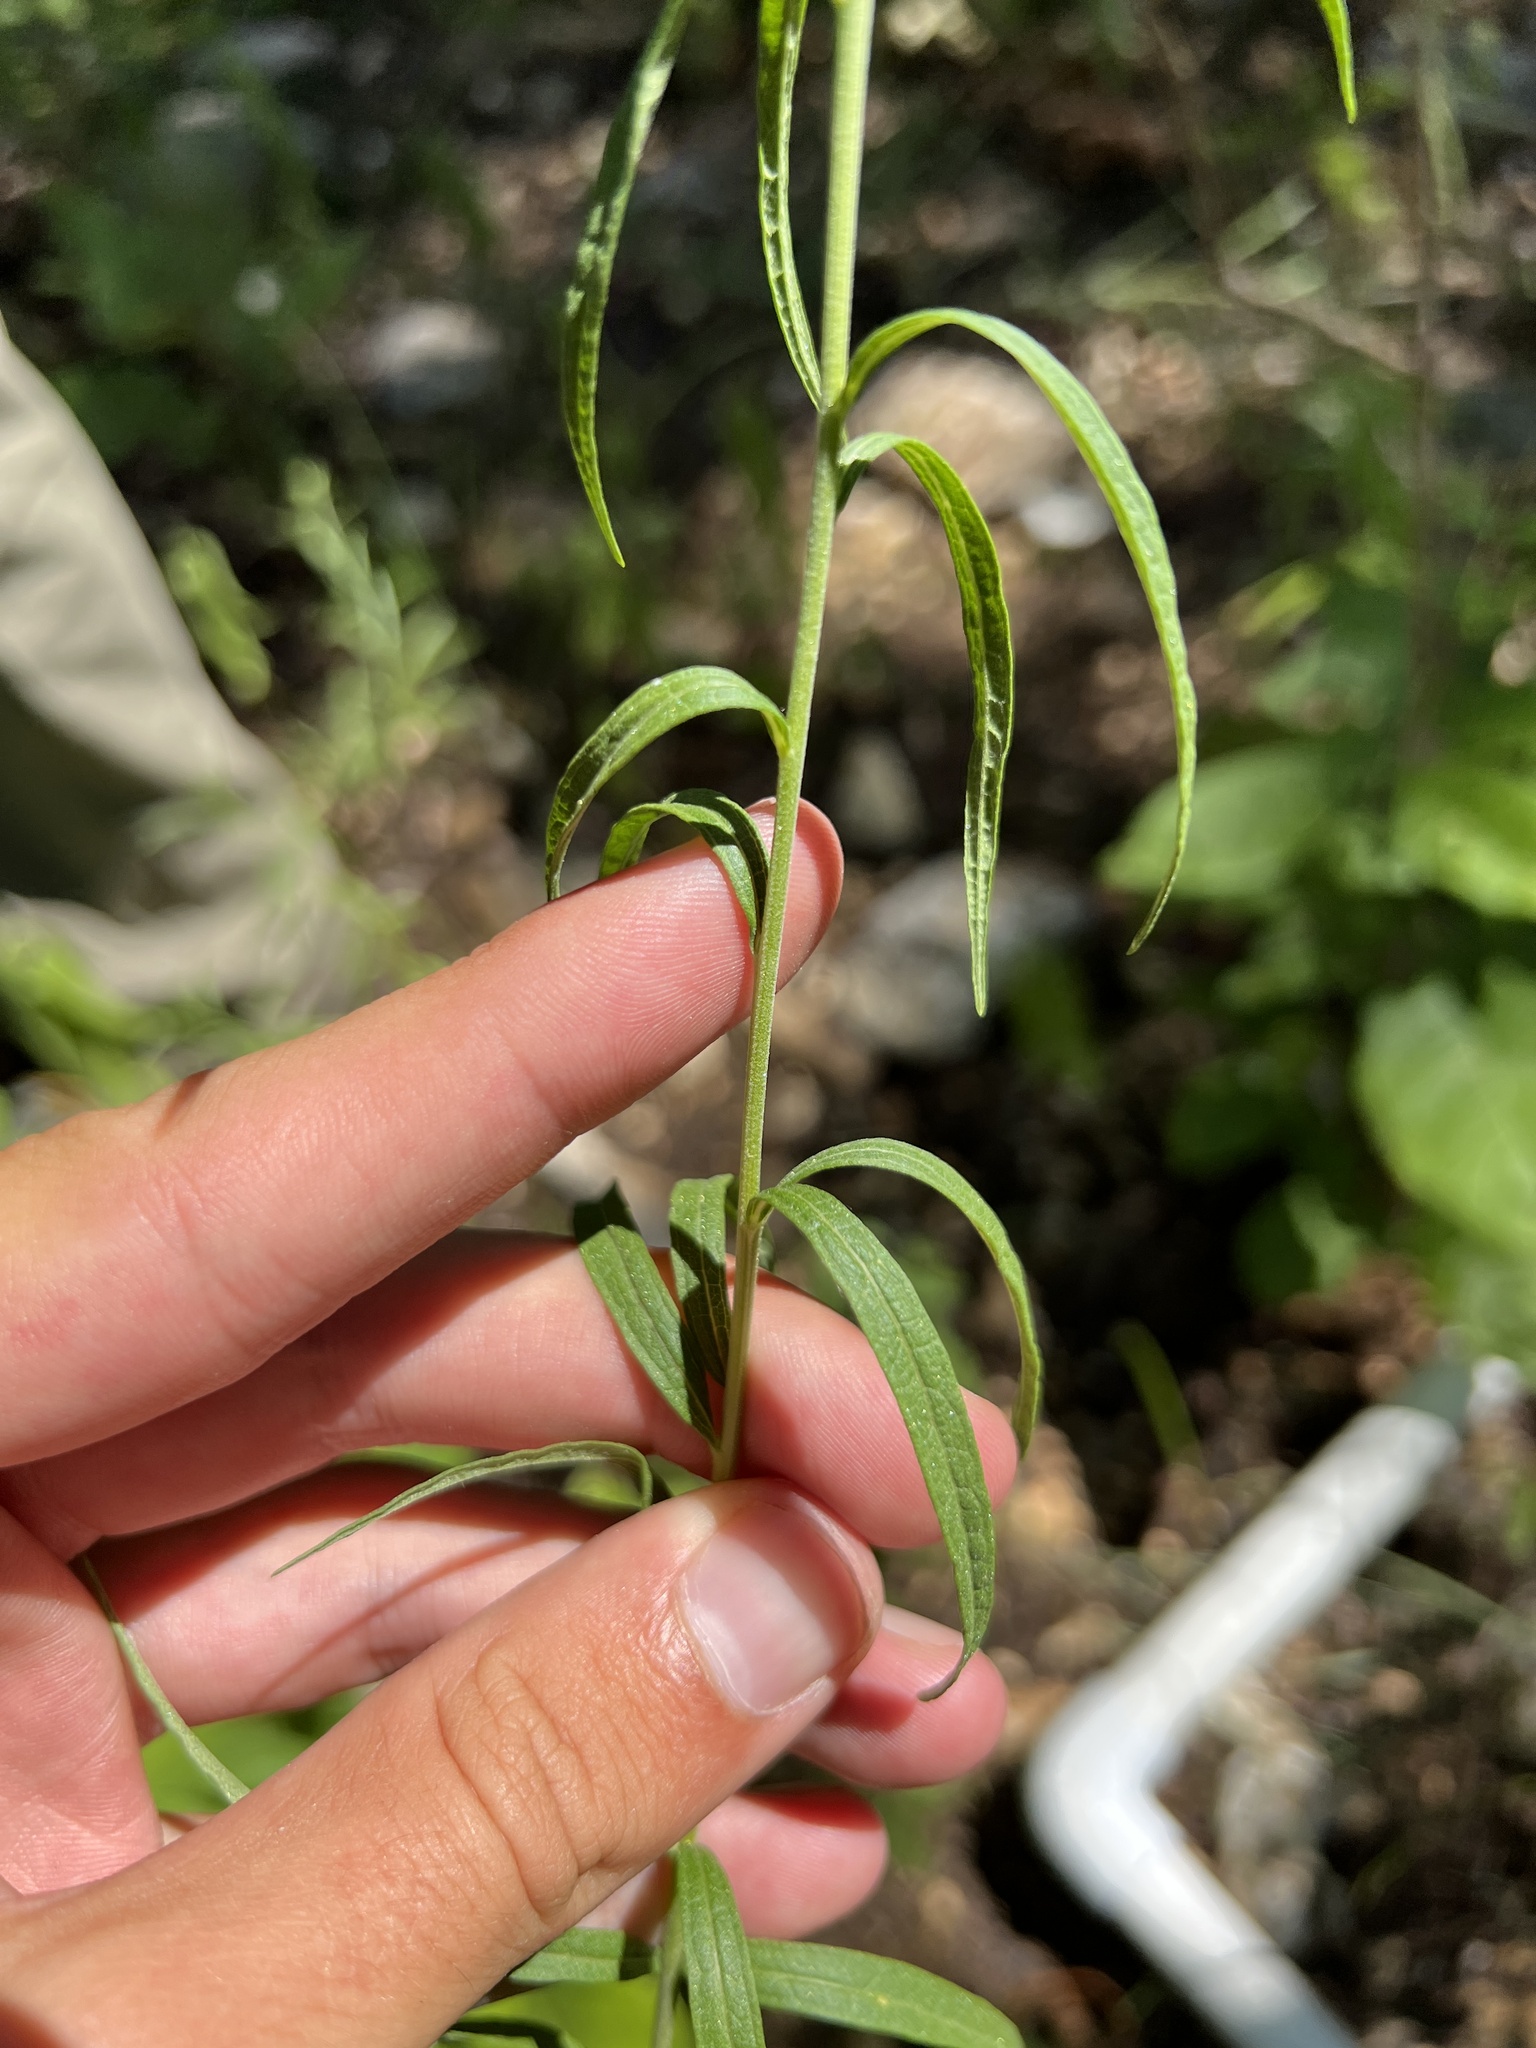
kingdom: Plantae
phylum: Tracheophyta
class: Magnoliopsida
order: Asterales
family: Asteraceae
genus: Brickellia
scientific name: Brickellia ozarkana
